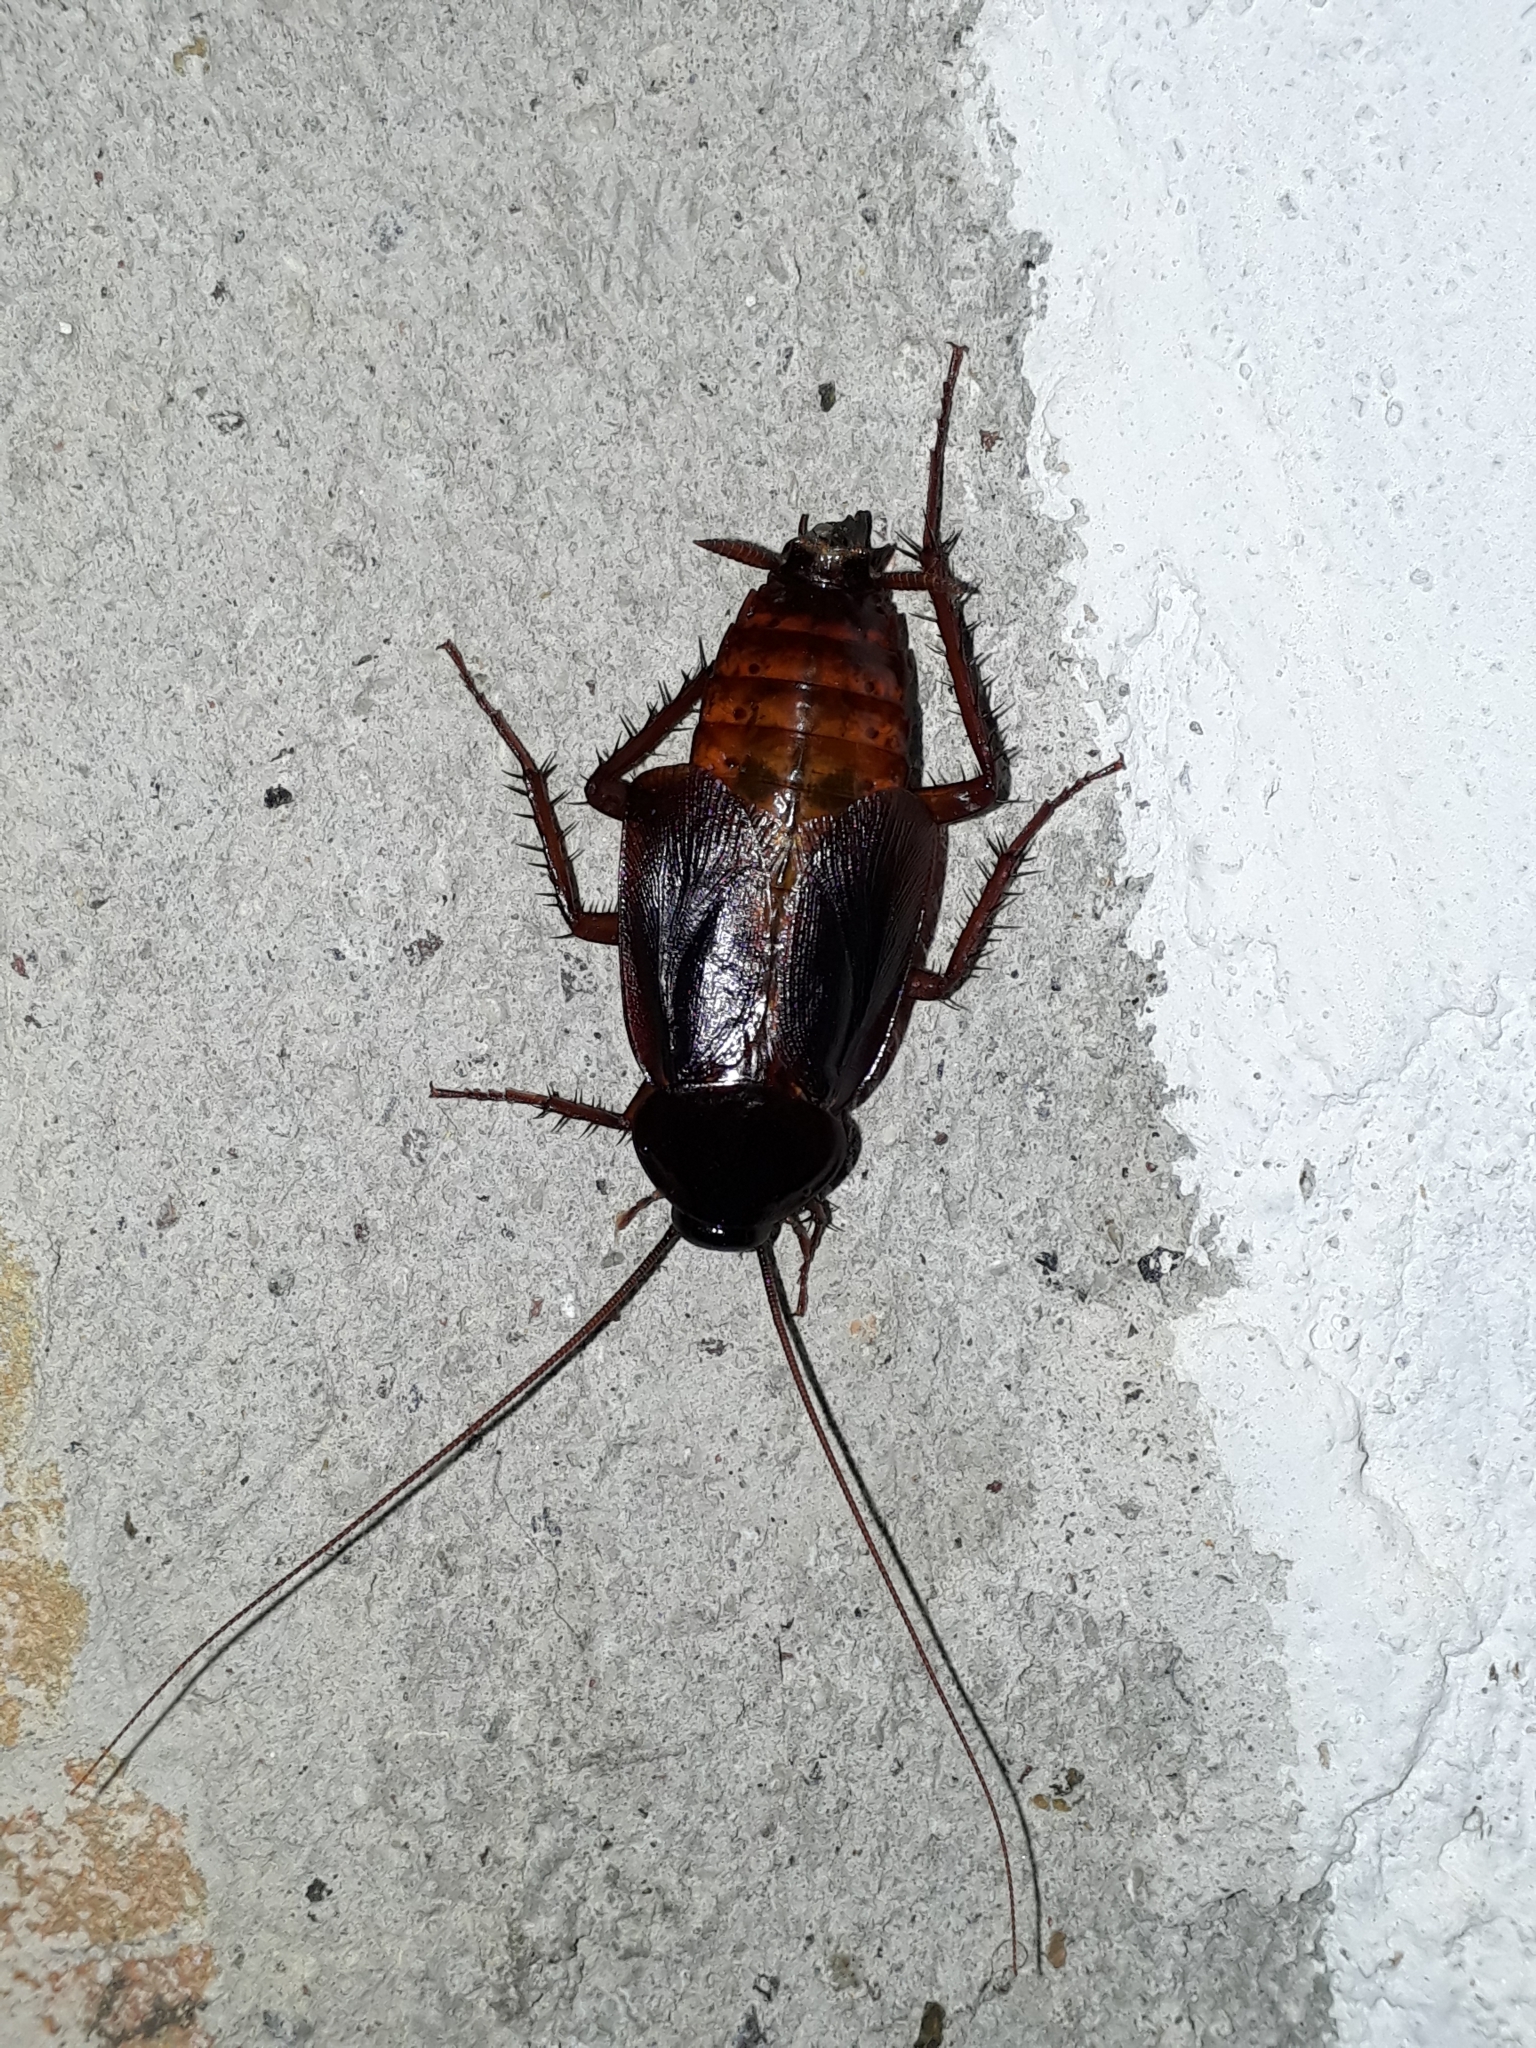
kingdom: Animalia
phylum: Arthropoda
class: Insecta
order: Blattodea
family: Blattidae
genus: Blatta
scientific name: Blatta orientalis
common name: Oriental cockroach
